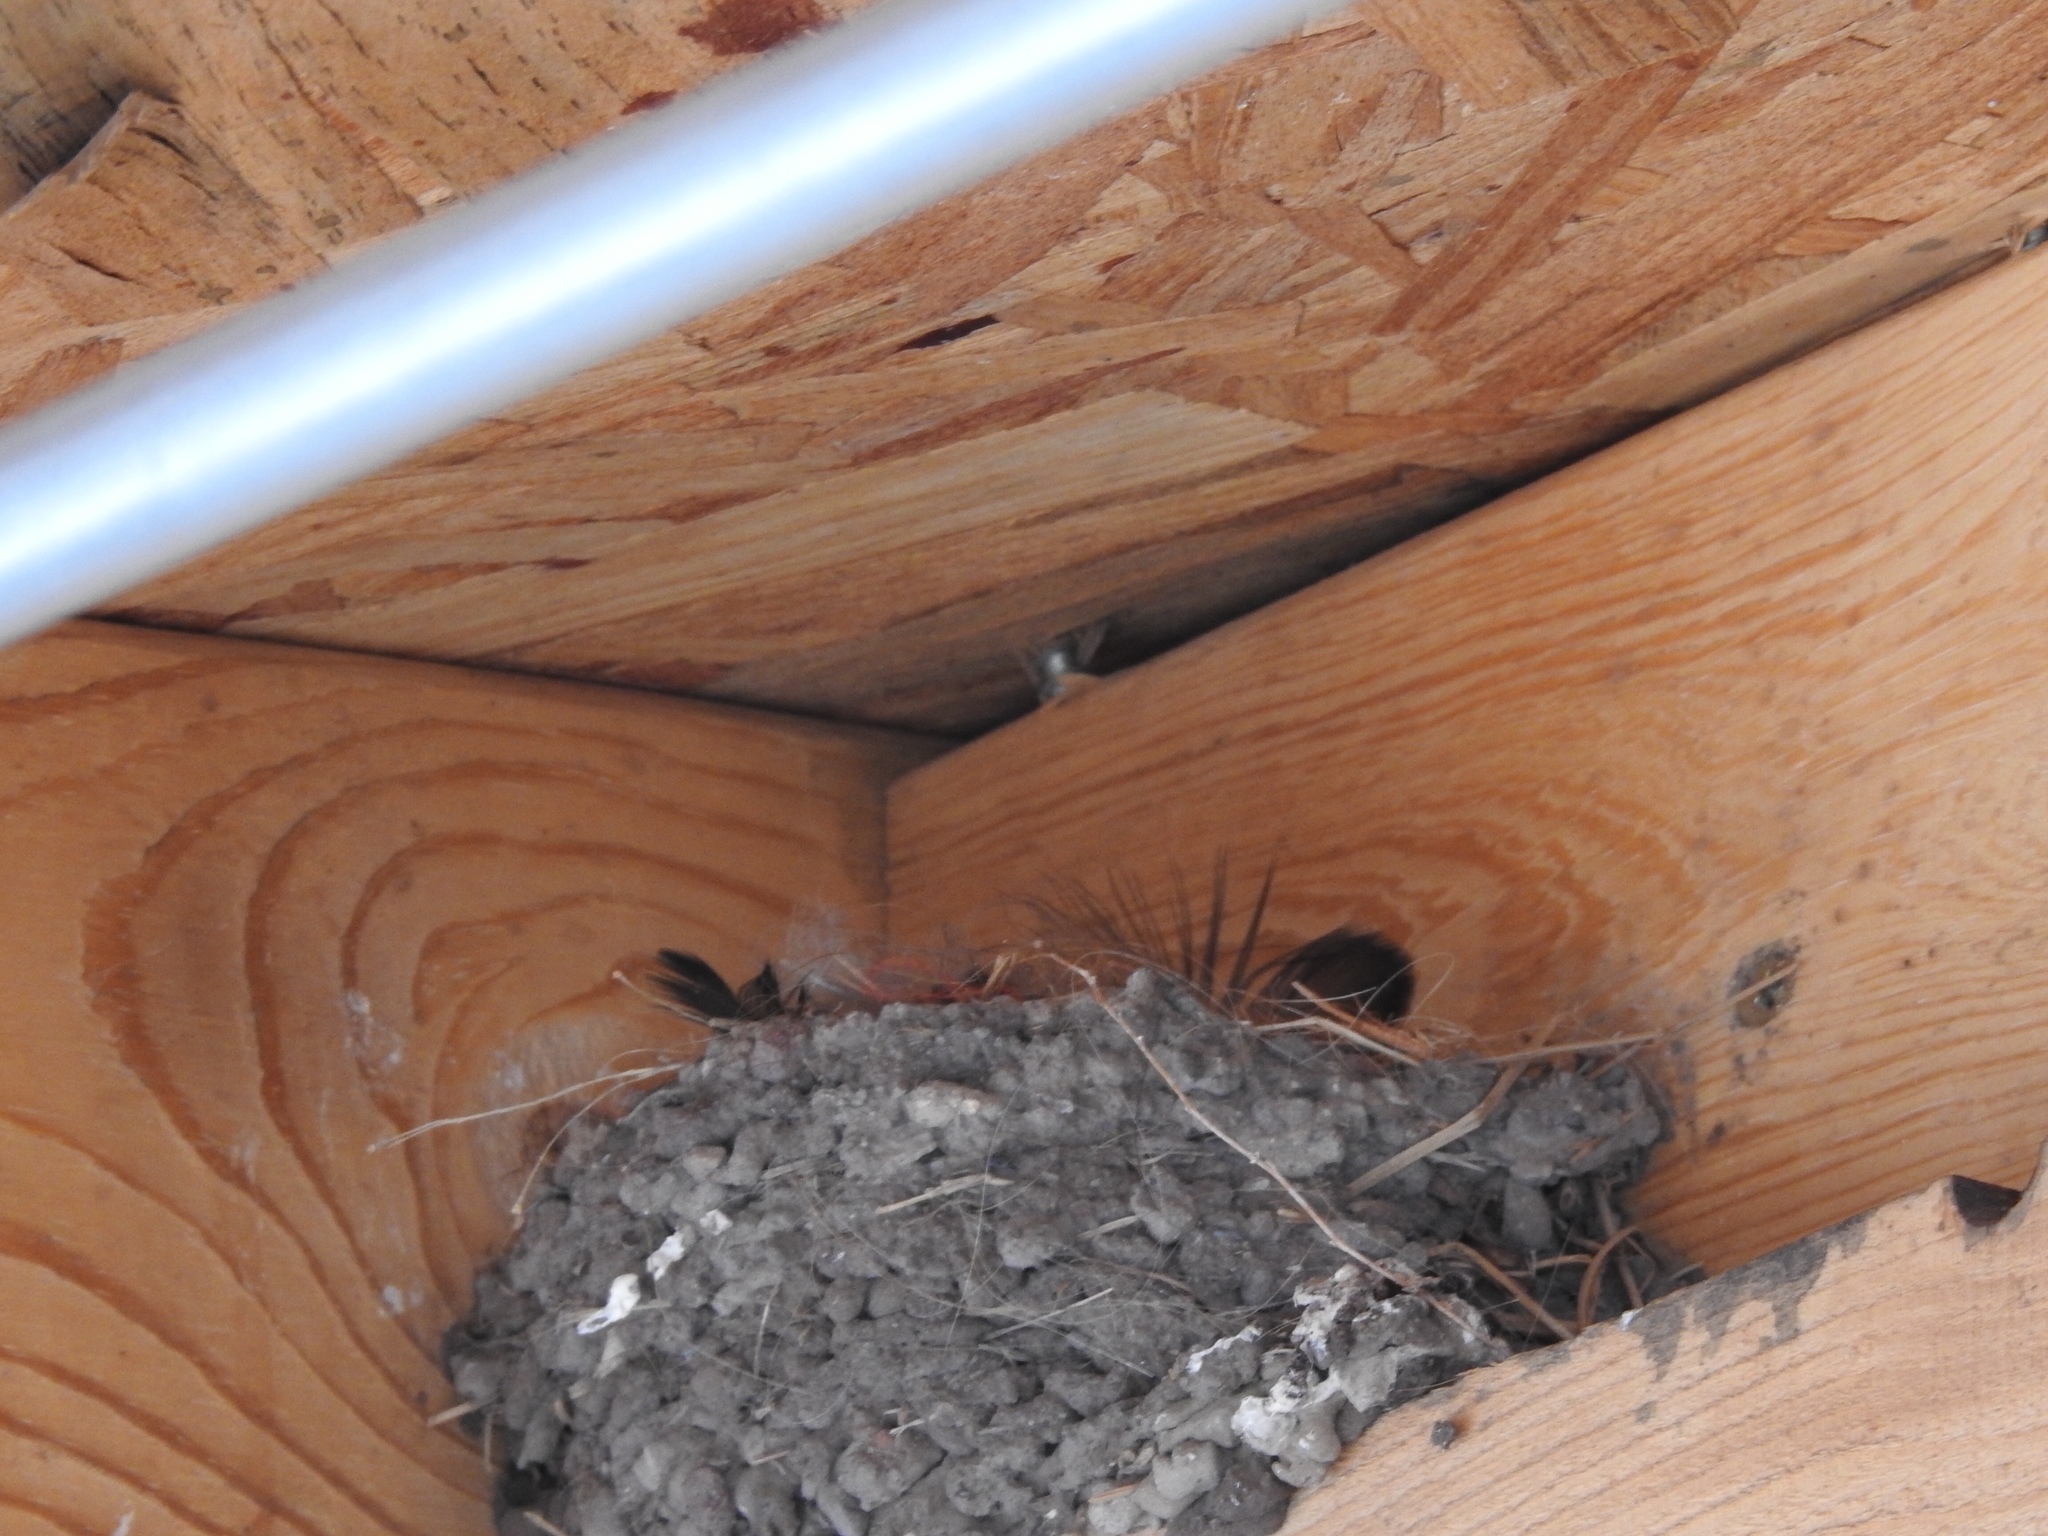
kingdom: Animalia
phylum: Chordata
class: Aves
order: Passeriformes
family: Hirundinidae
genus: Hirundo
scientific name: Hirundo rustica
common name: Barn swallow
